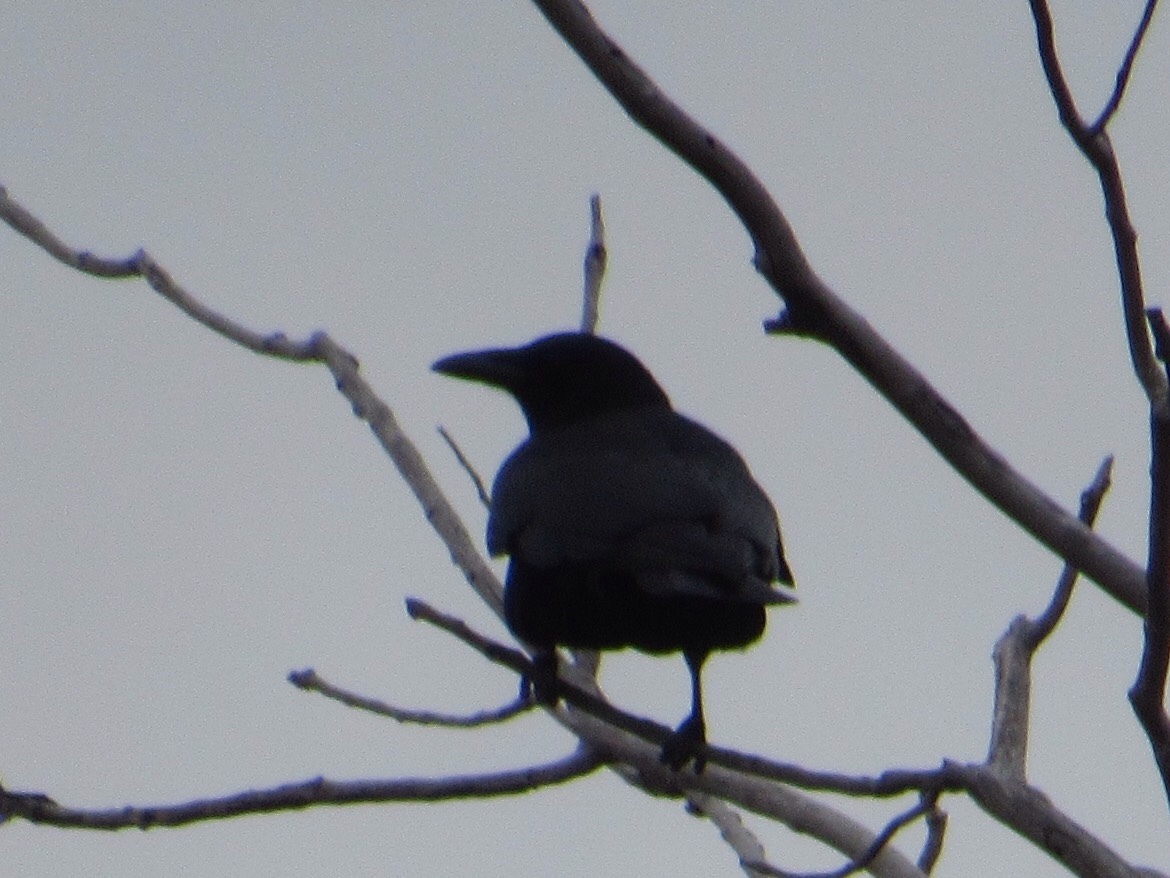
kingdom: Animalia
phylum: Chordata
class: Aves
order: Passeriformes
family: Corvidae
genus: Corvus
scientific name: Corvus brachyrhynchos
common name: American crow
